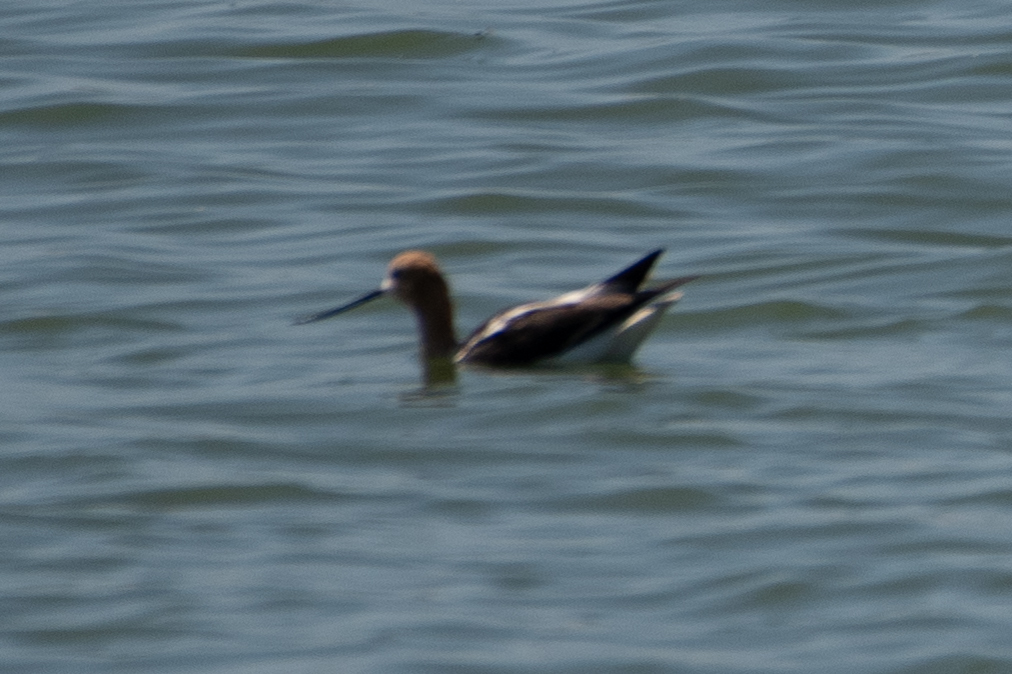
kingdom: Animalia
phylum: Chordata
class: Aves
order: Charadriiformes
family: Recurvirostridae
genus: Recurvirostra
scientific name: Recurvirostra americana
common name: American avocet
